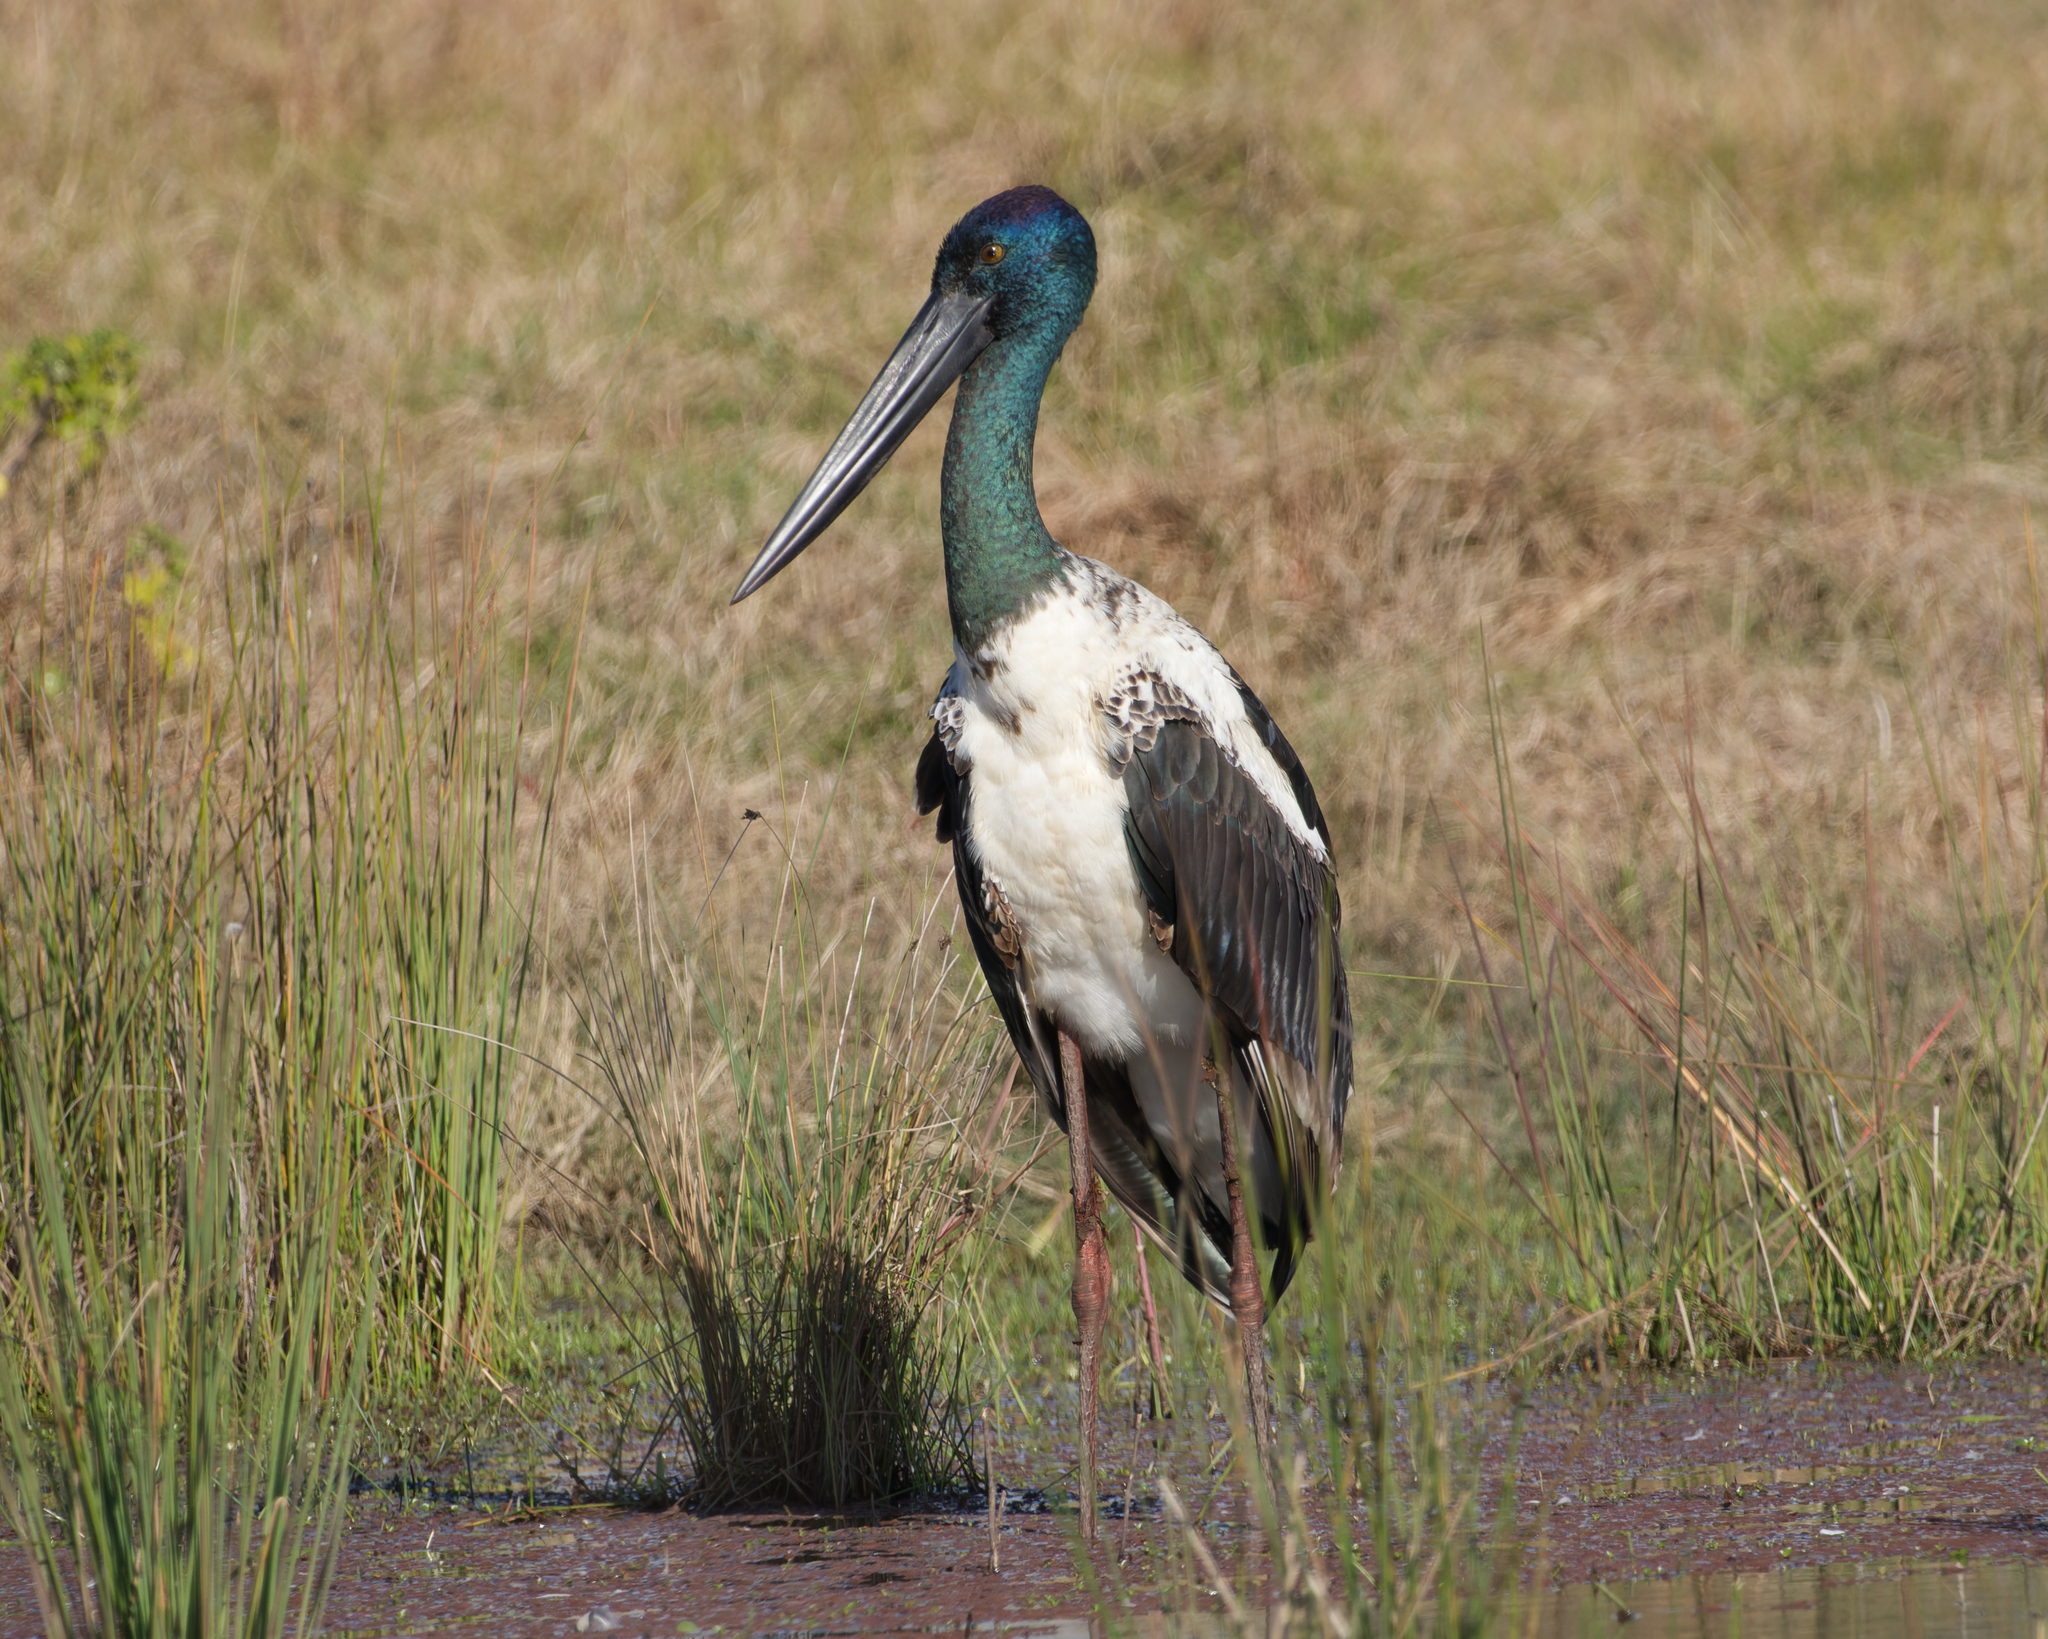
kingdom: Animalia
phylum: Chordata
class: Aves
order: Ciconiiformes
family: Ciconiidae
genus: Ephippiorhynchus
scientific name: Ephippiorhynchus asiaticus
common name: Black-necked stork
